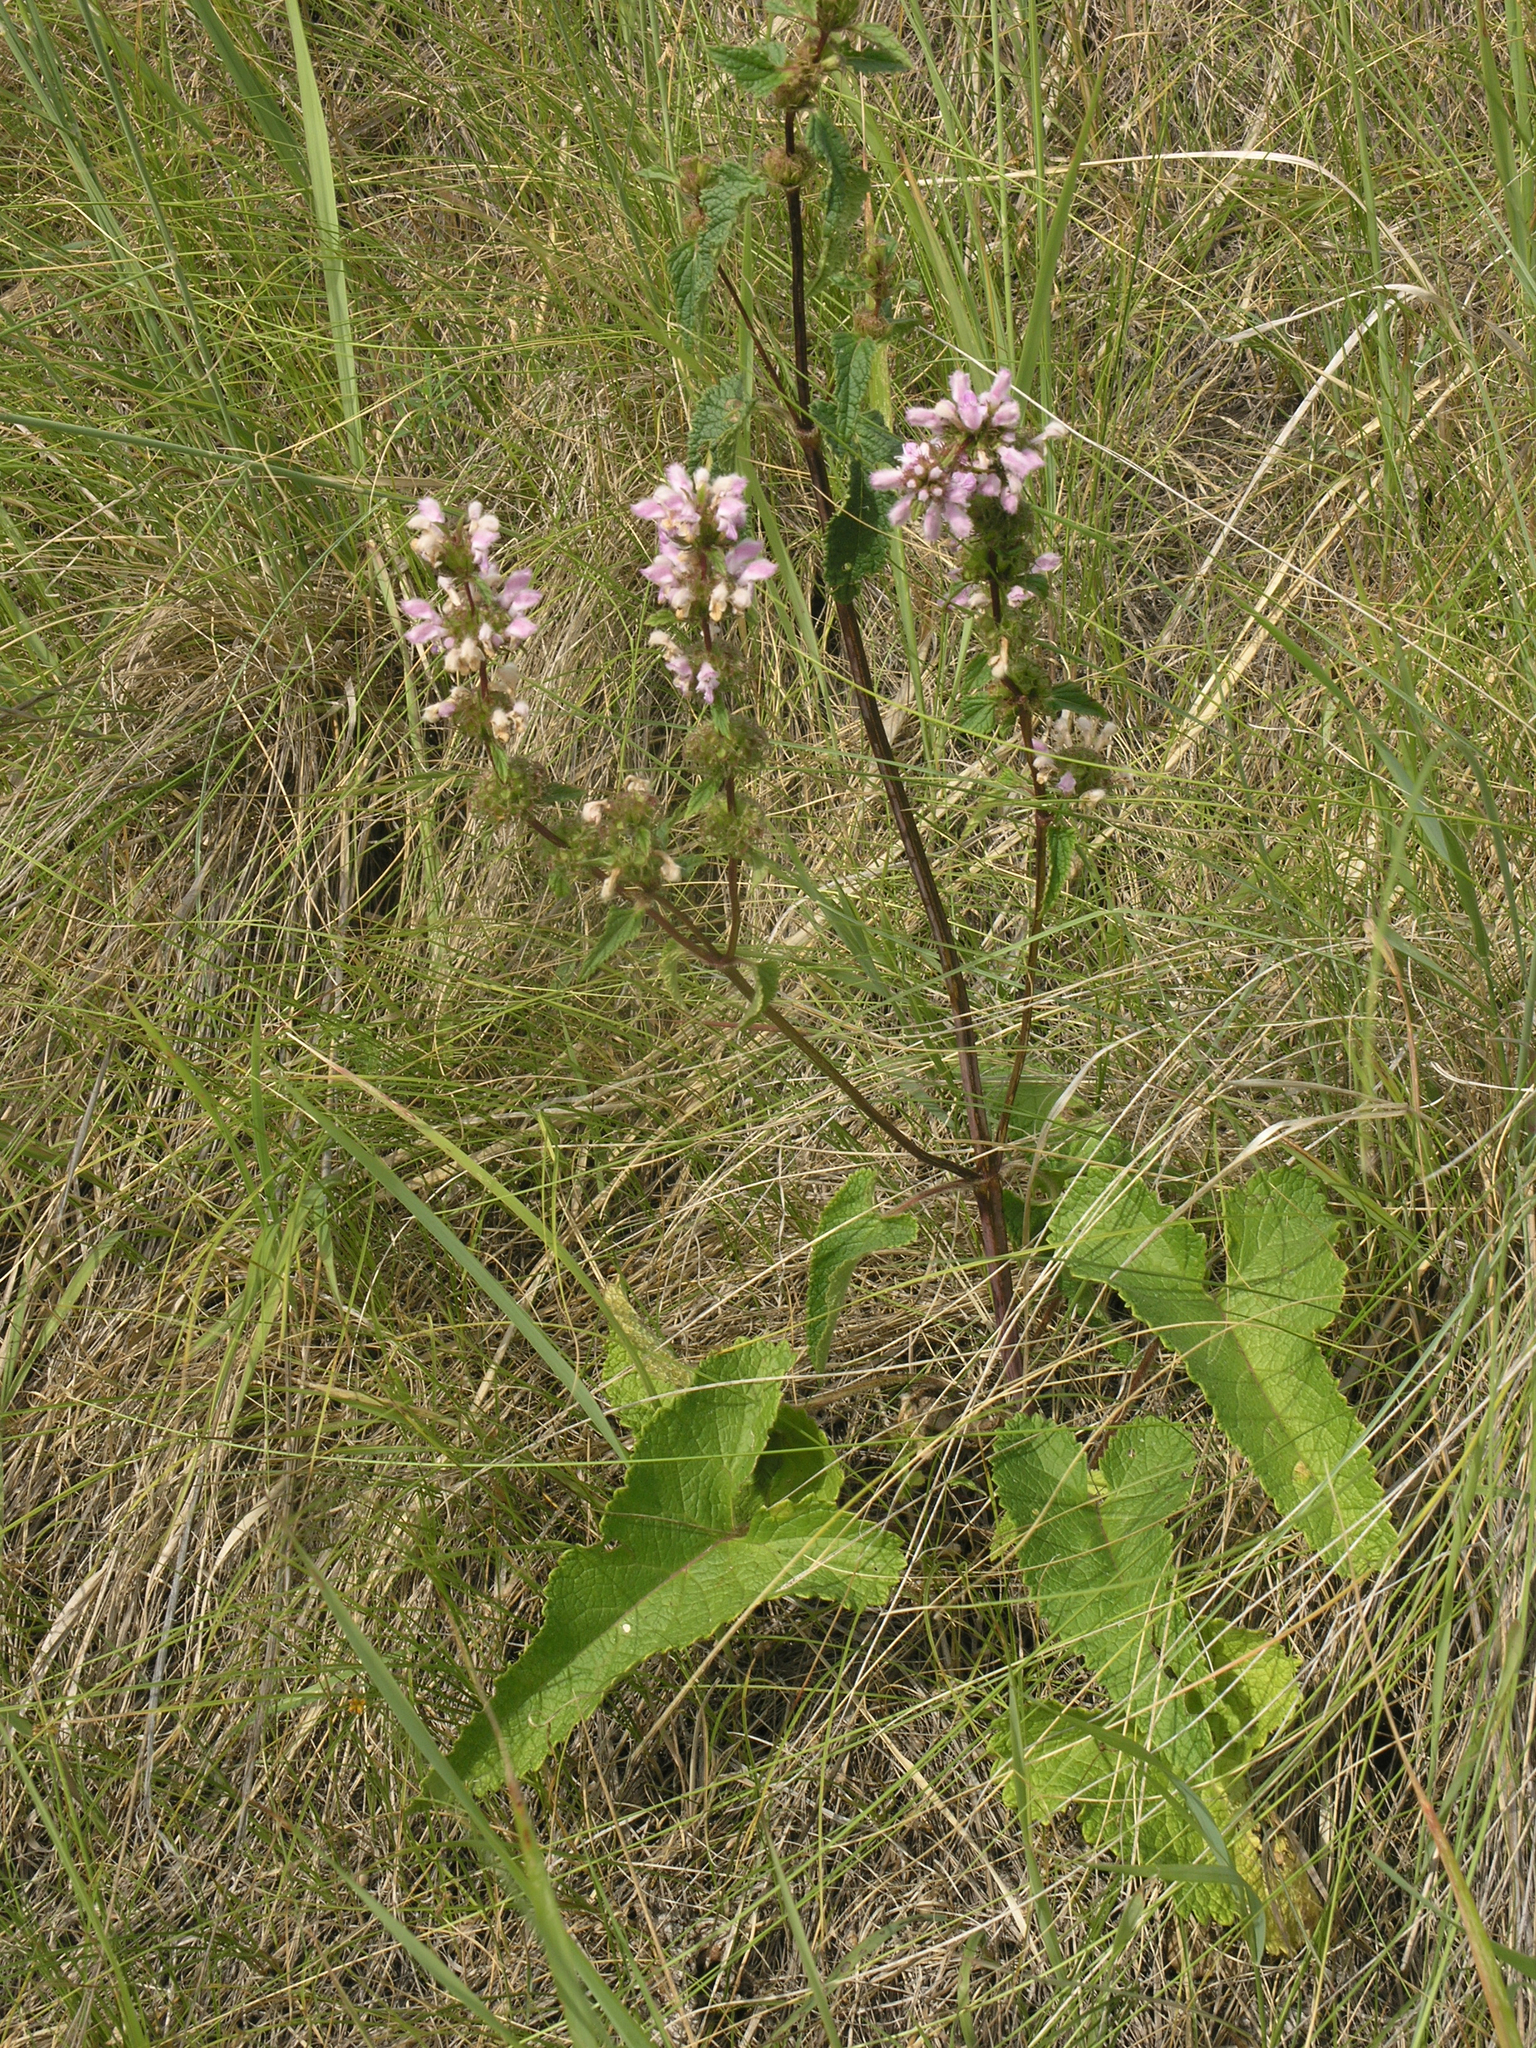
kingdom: Plantae
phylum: Tracheophyta
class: Magnoliopsida
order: Lamiales
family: Lamiaceae
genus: Phlomoides
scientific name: Phlomoides tuberosa
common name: Tuberous jerusalem sage
